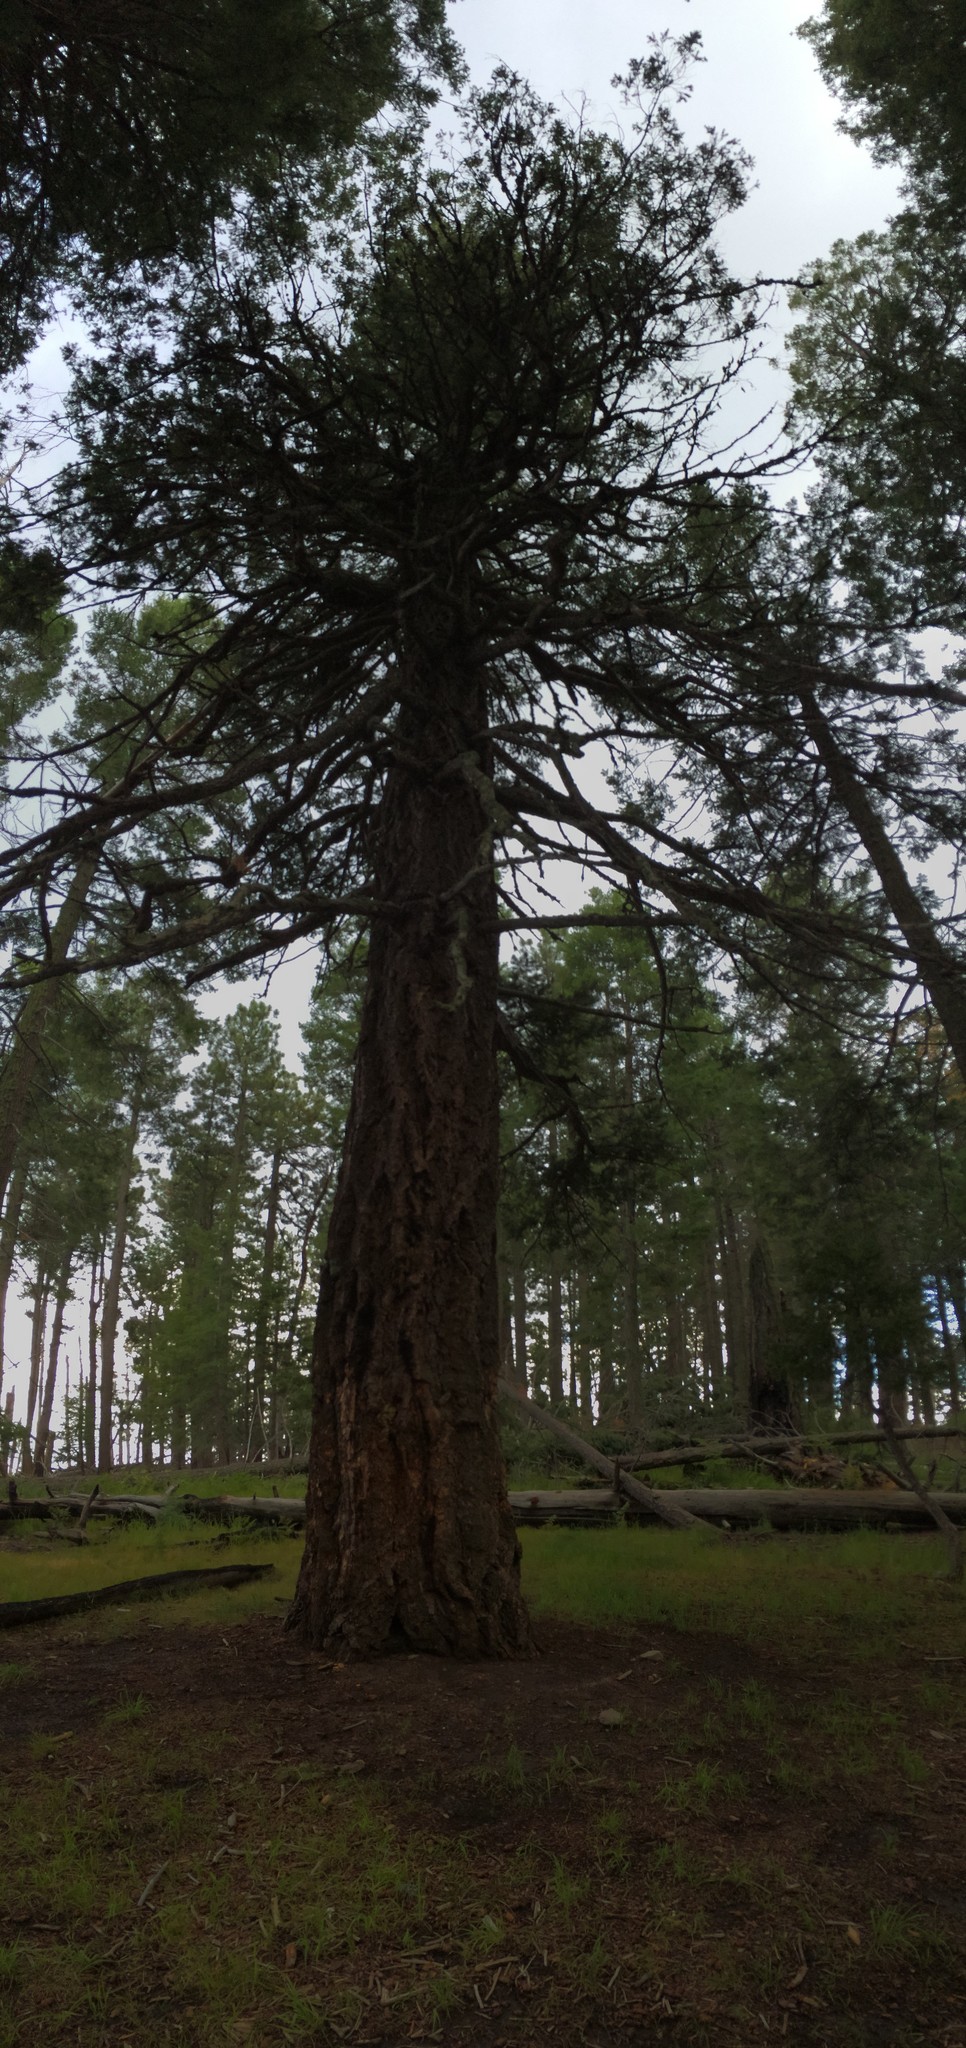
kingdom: Plantae
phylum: Tracheophyta
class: Pinopsida
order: Pinales
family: Pinaceae
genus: Pseudotsuga
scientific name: Pseudotsuga menziesii
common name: Douglas fir
